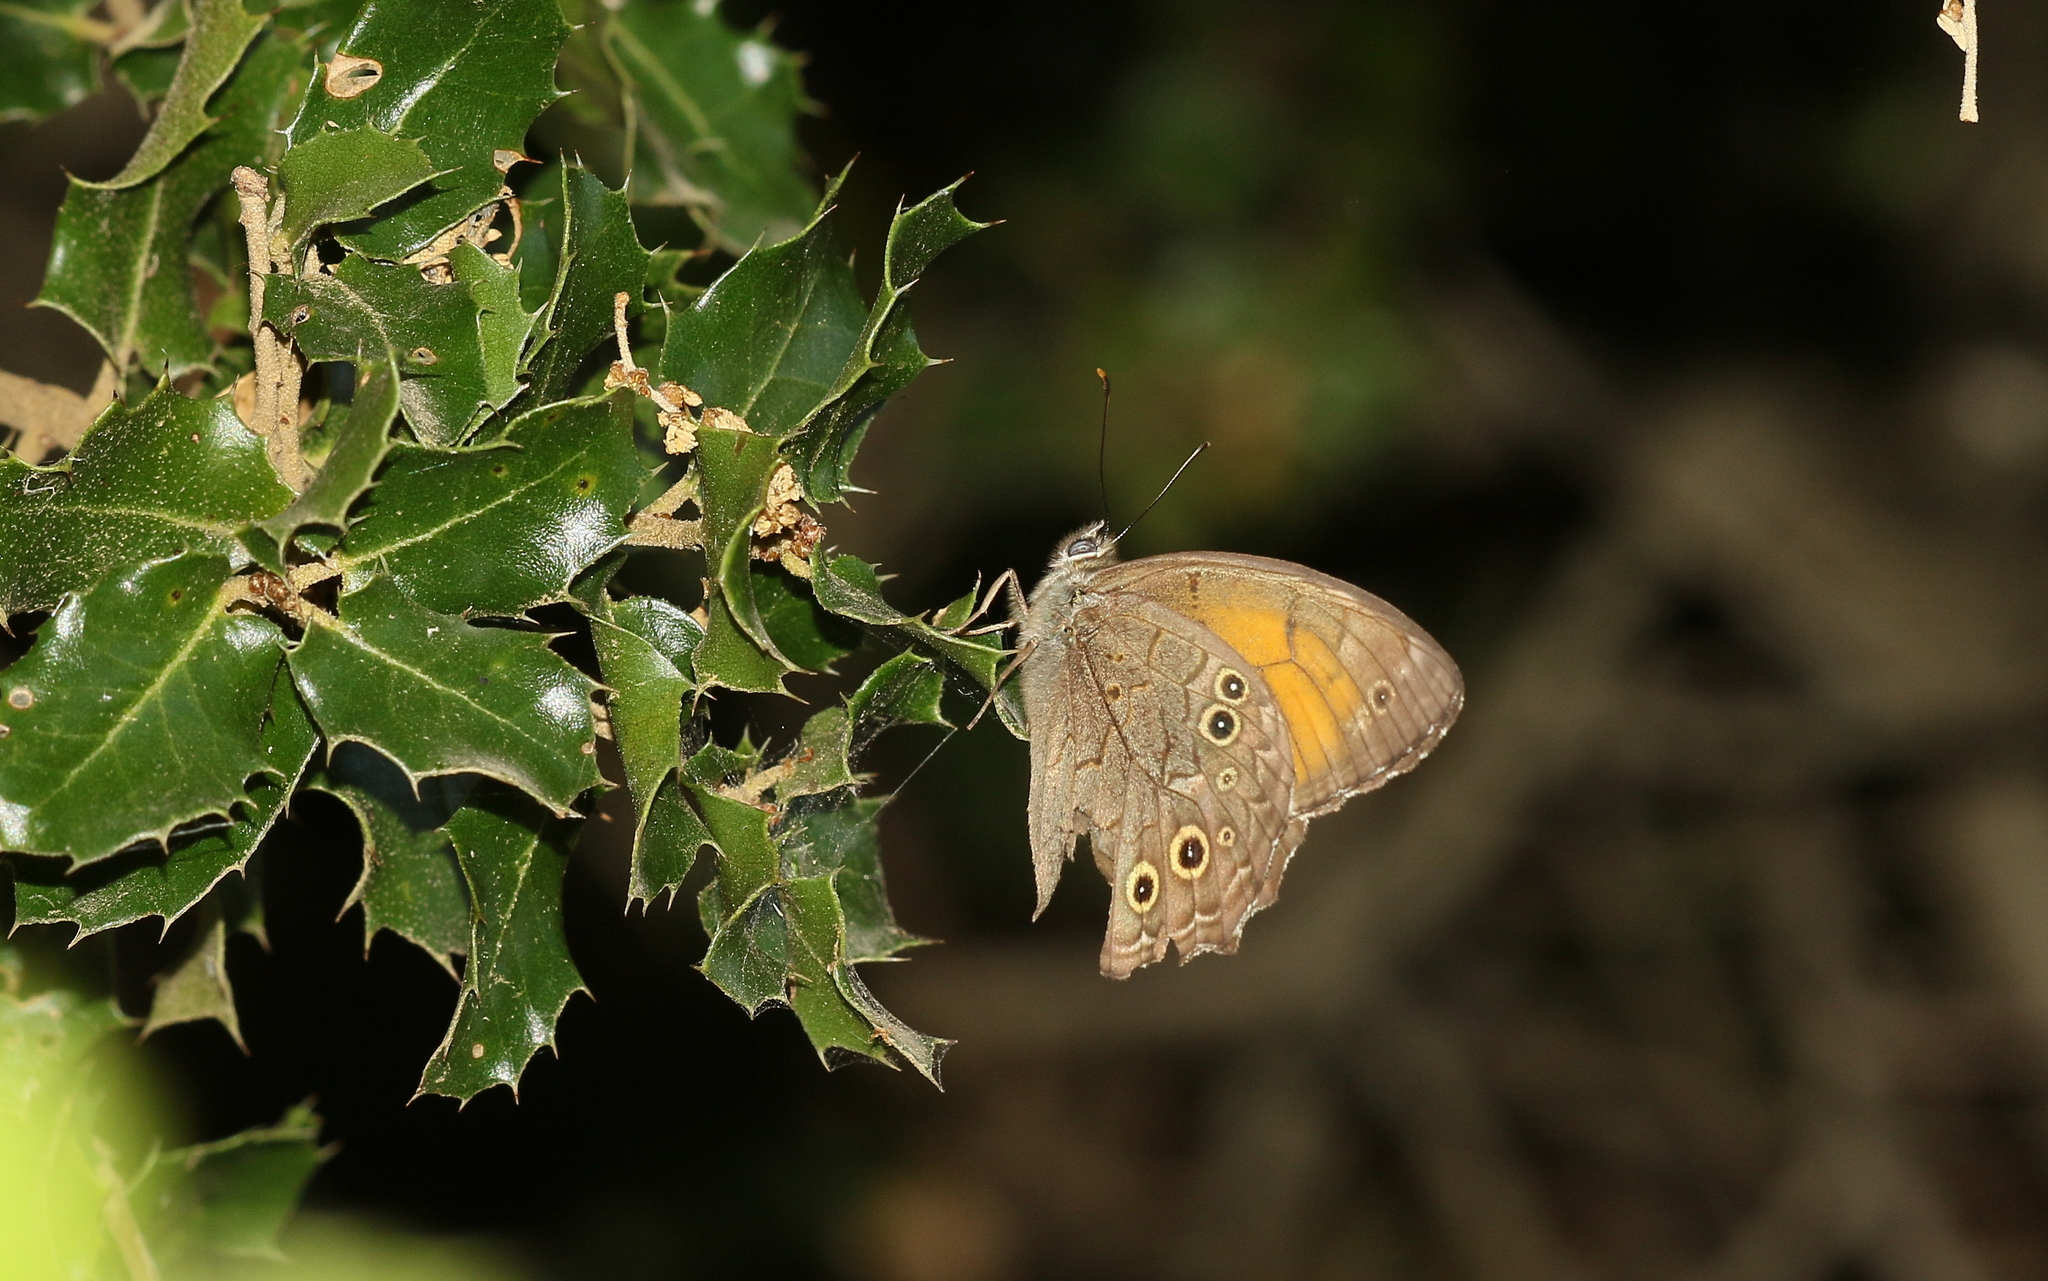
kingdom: Animalia
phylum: Arthropoda
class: Insecta
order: Lepidoptera
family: Nymphalidae
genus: Kirinia
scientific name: Kirinia roxelana
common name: Lattice brown
